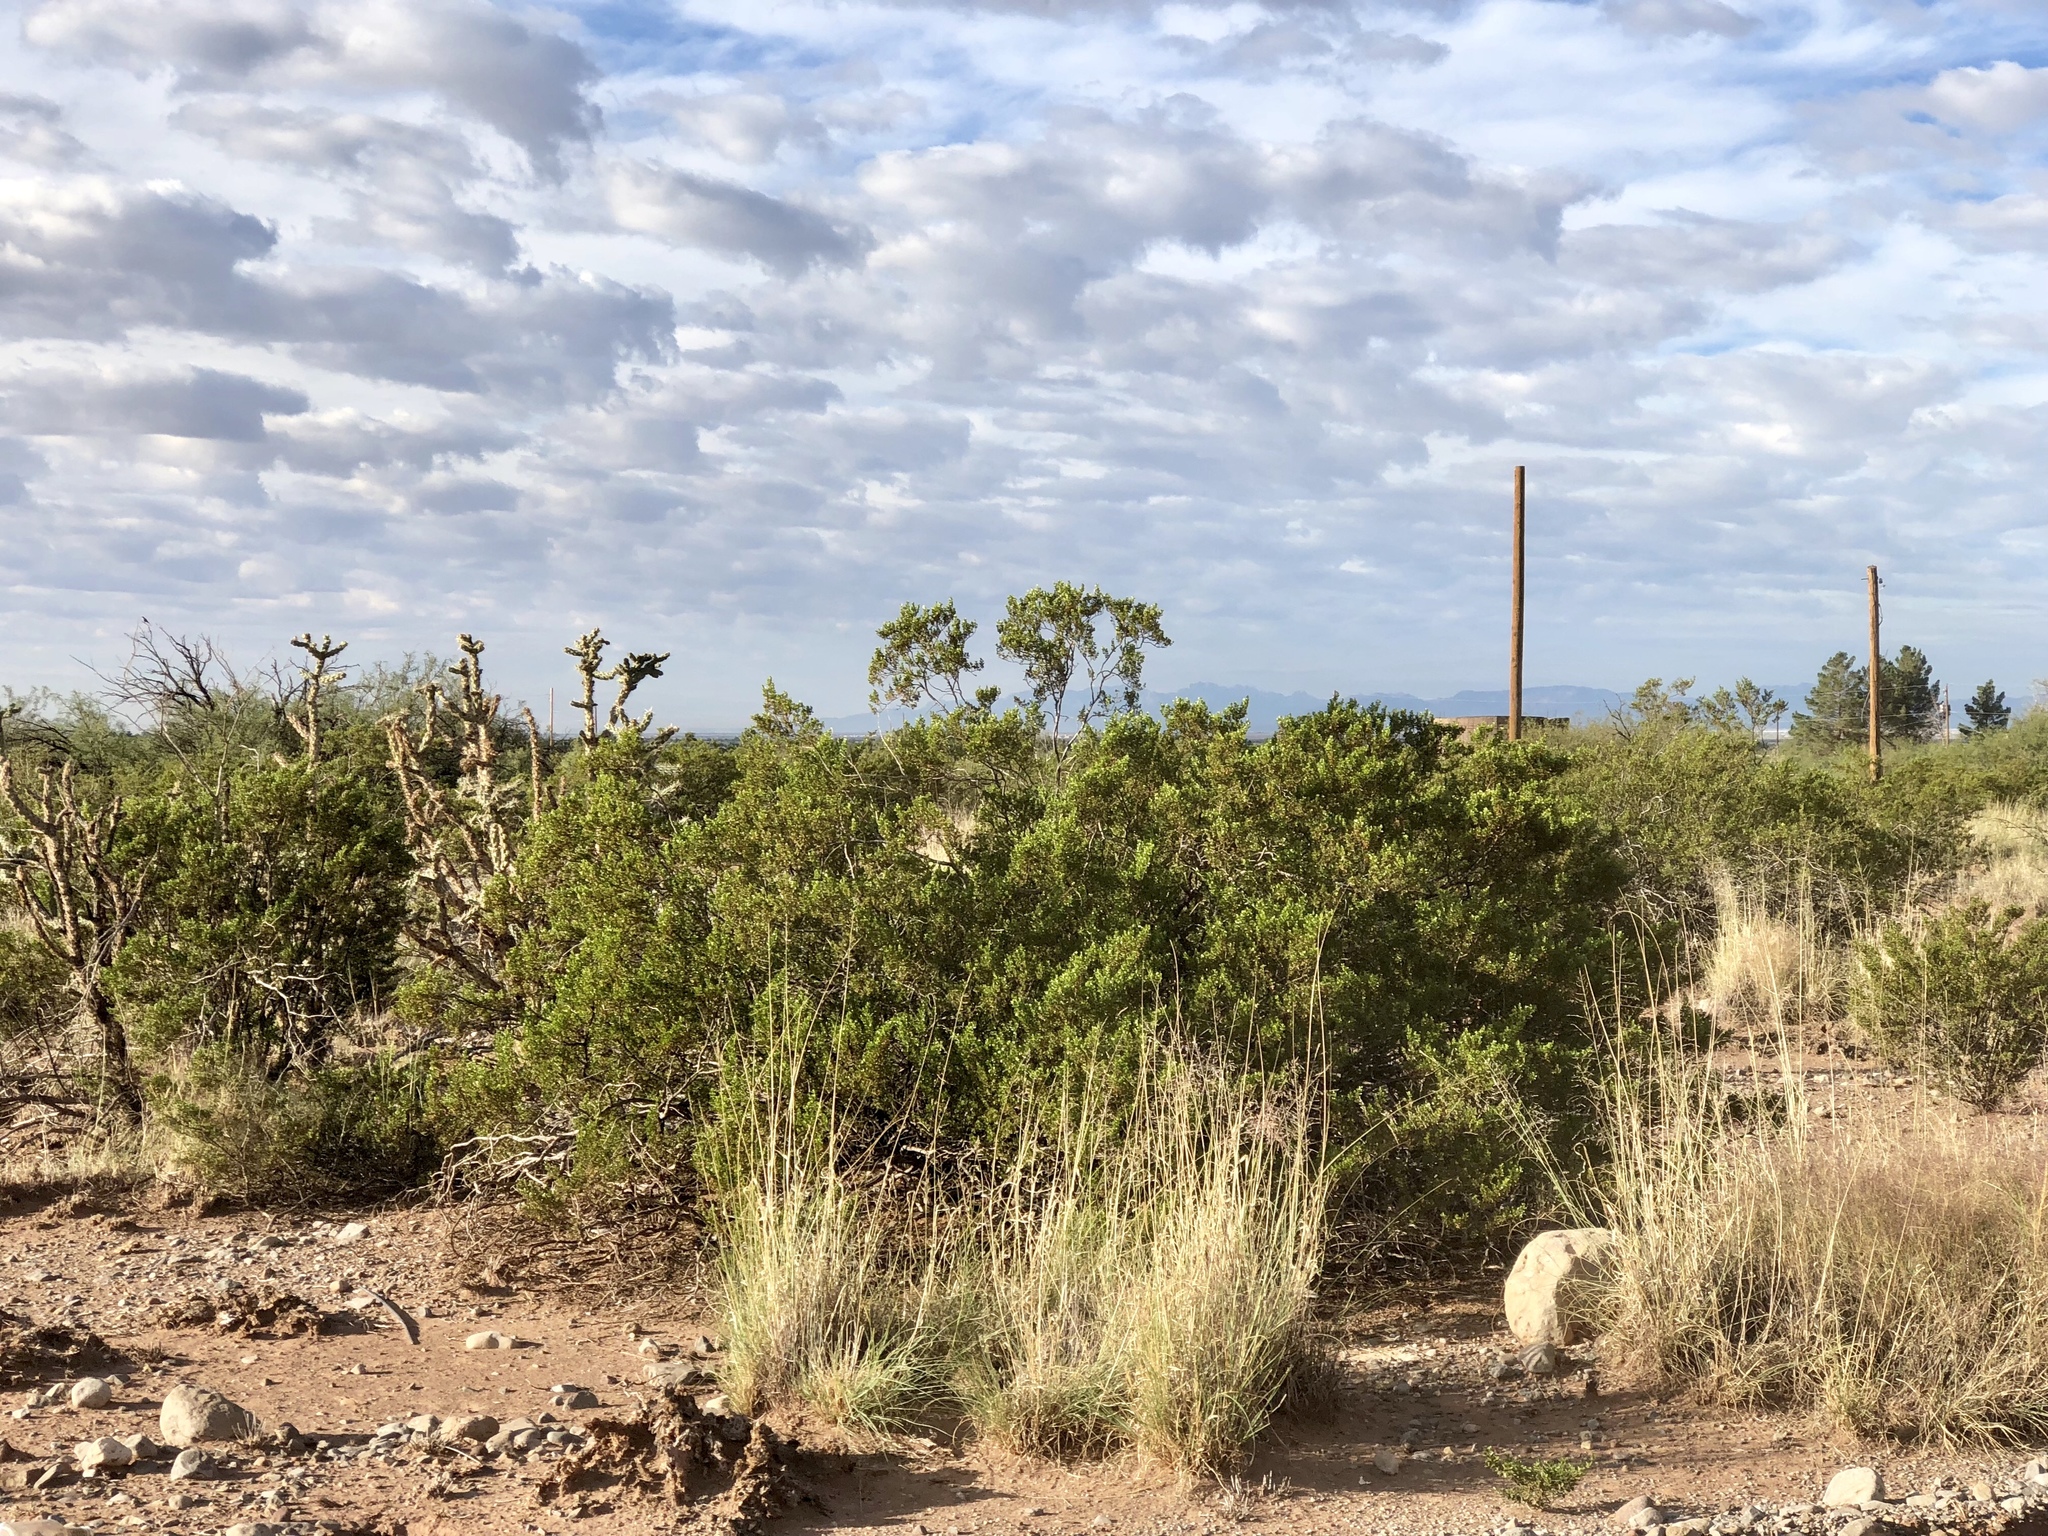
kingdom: Plantae
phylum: Tracheophyta
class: Magnoliopsida
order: Zygophyllales
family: Zygophyllaceae
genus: Larrea
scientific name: Larrea tridentata
